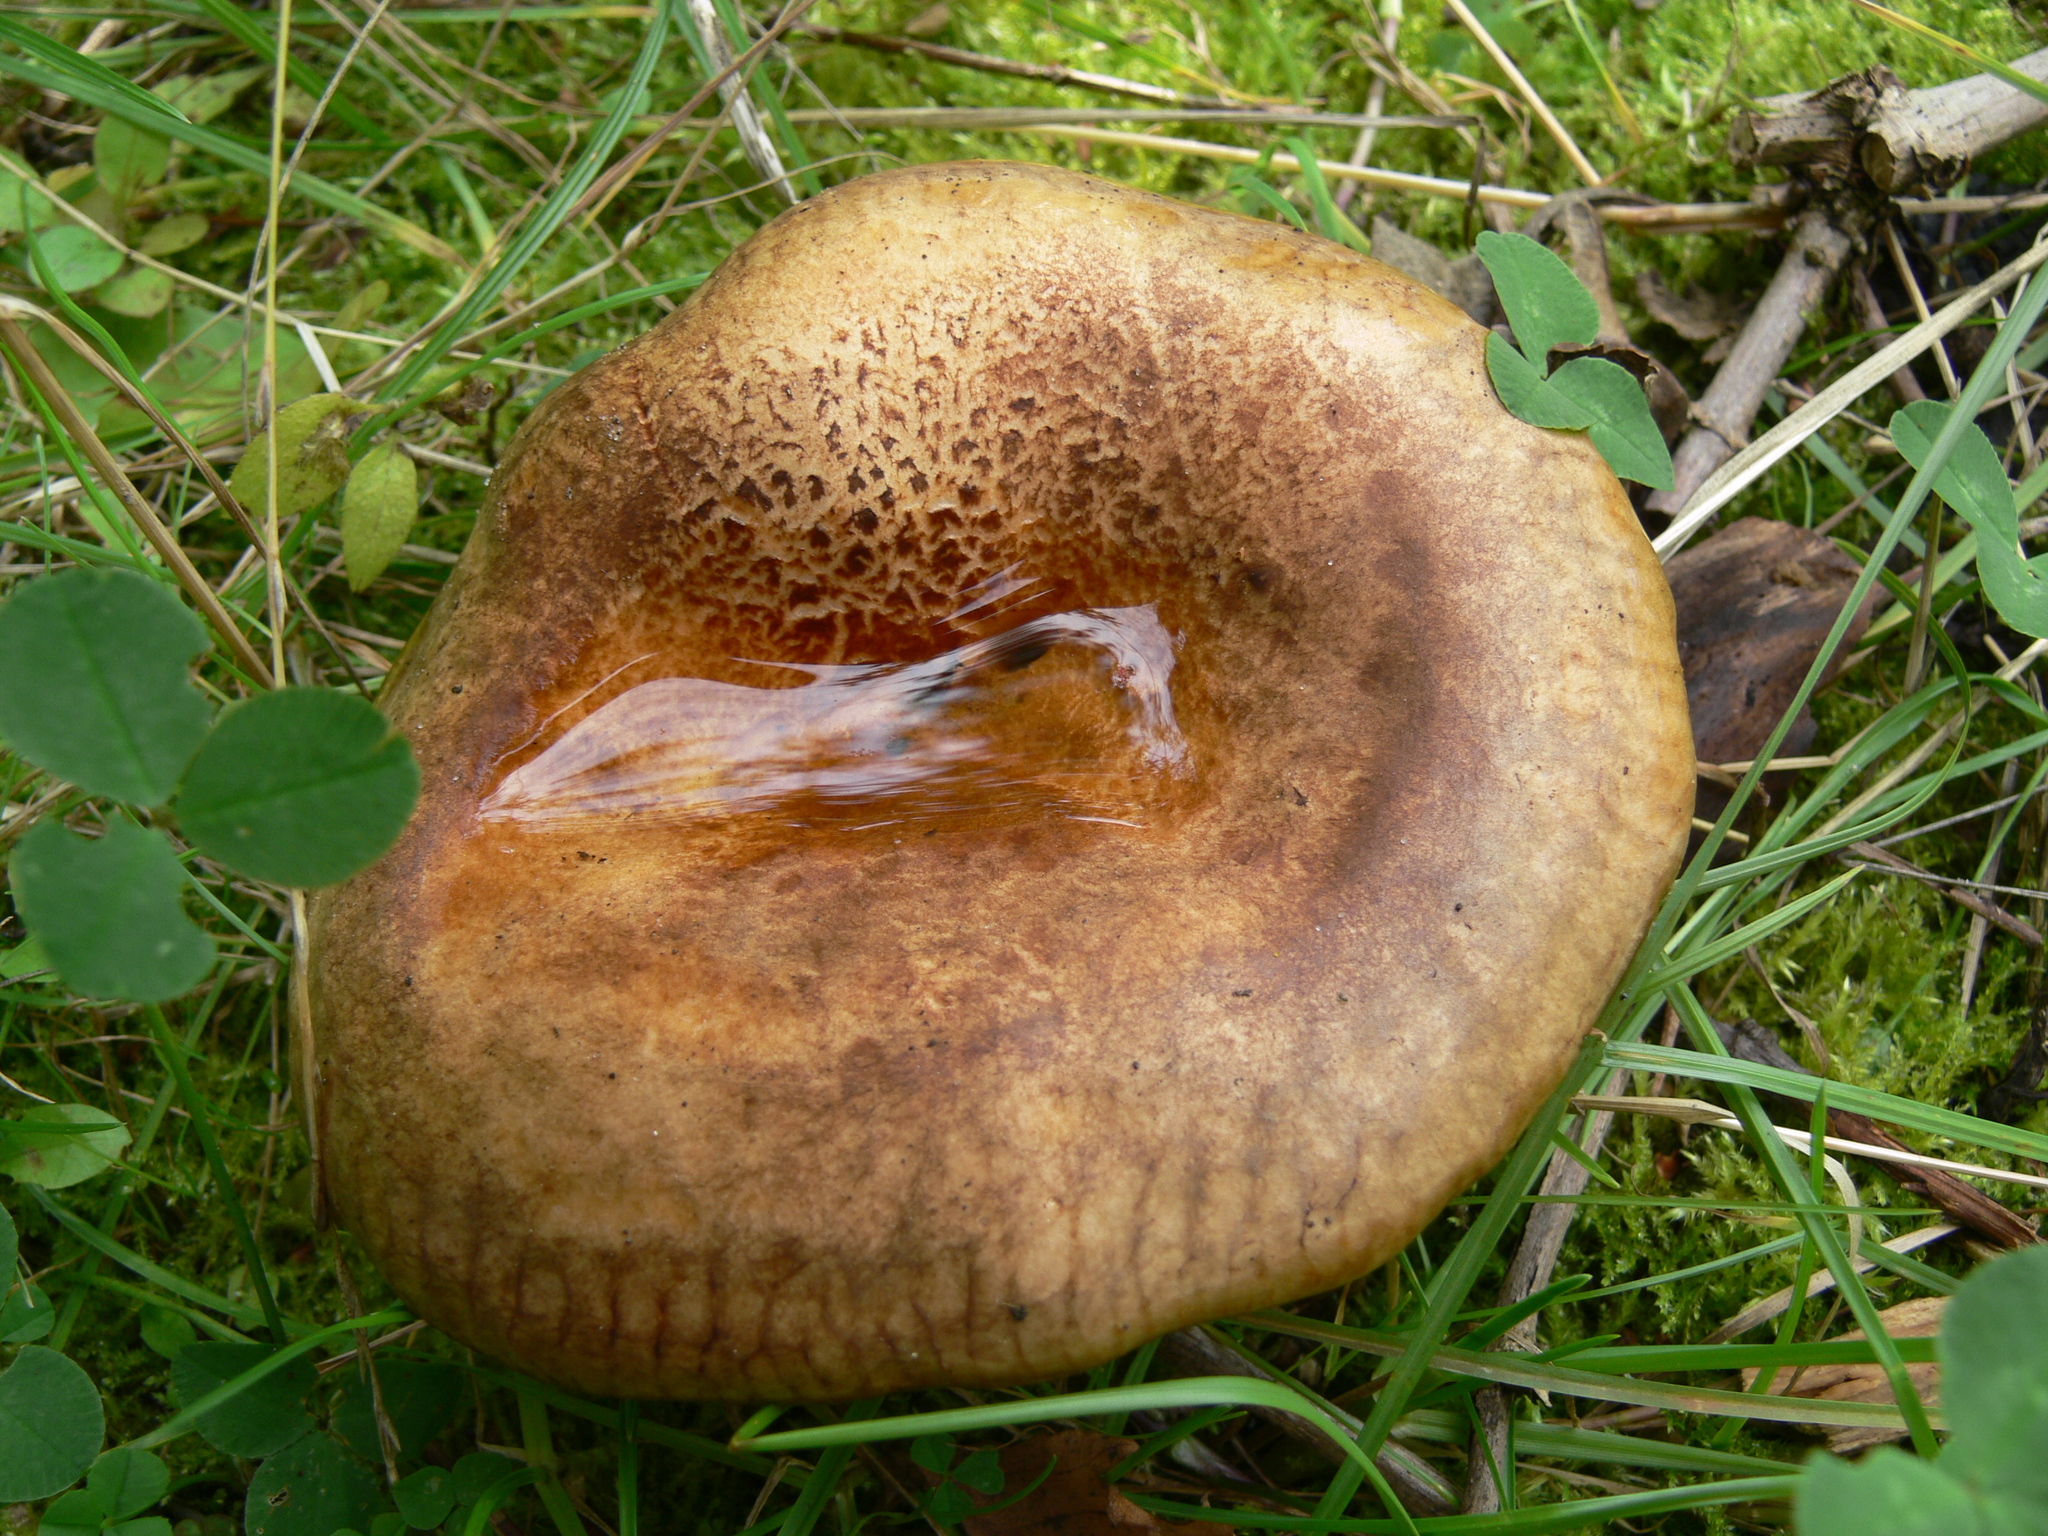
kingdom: Fungi
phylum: Basidiomycota
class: Agaricomycetes
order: Boletales
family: Paxillaceae
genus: Paxillus
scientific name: Paxillus involutus
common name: Brown roll rim
